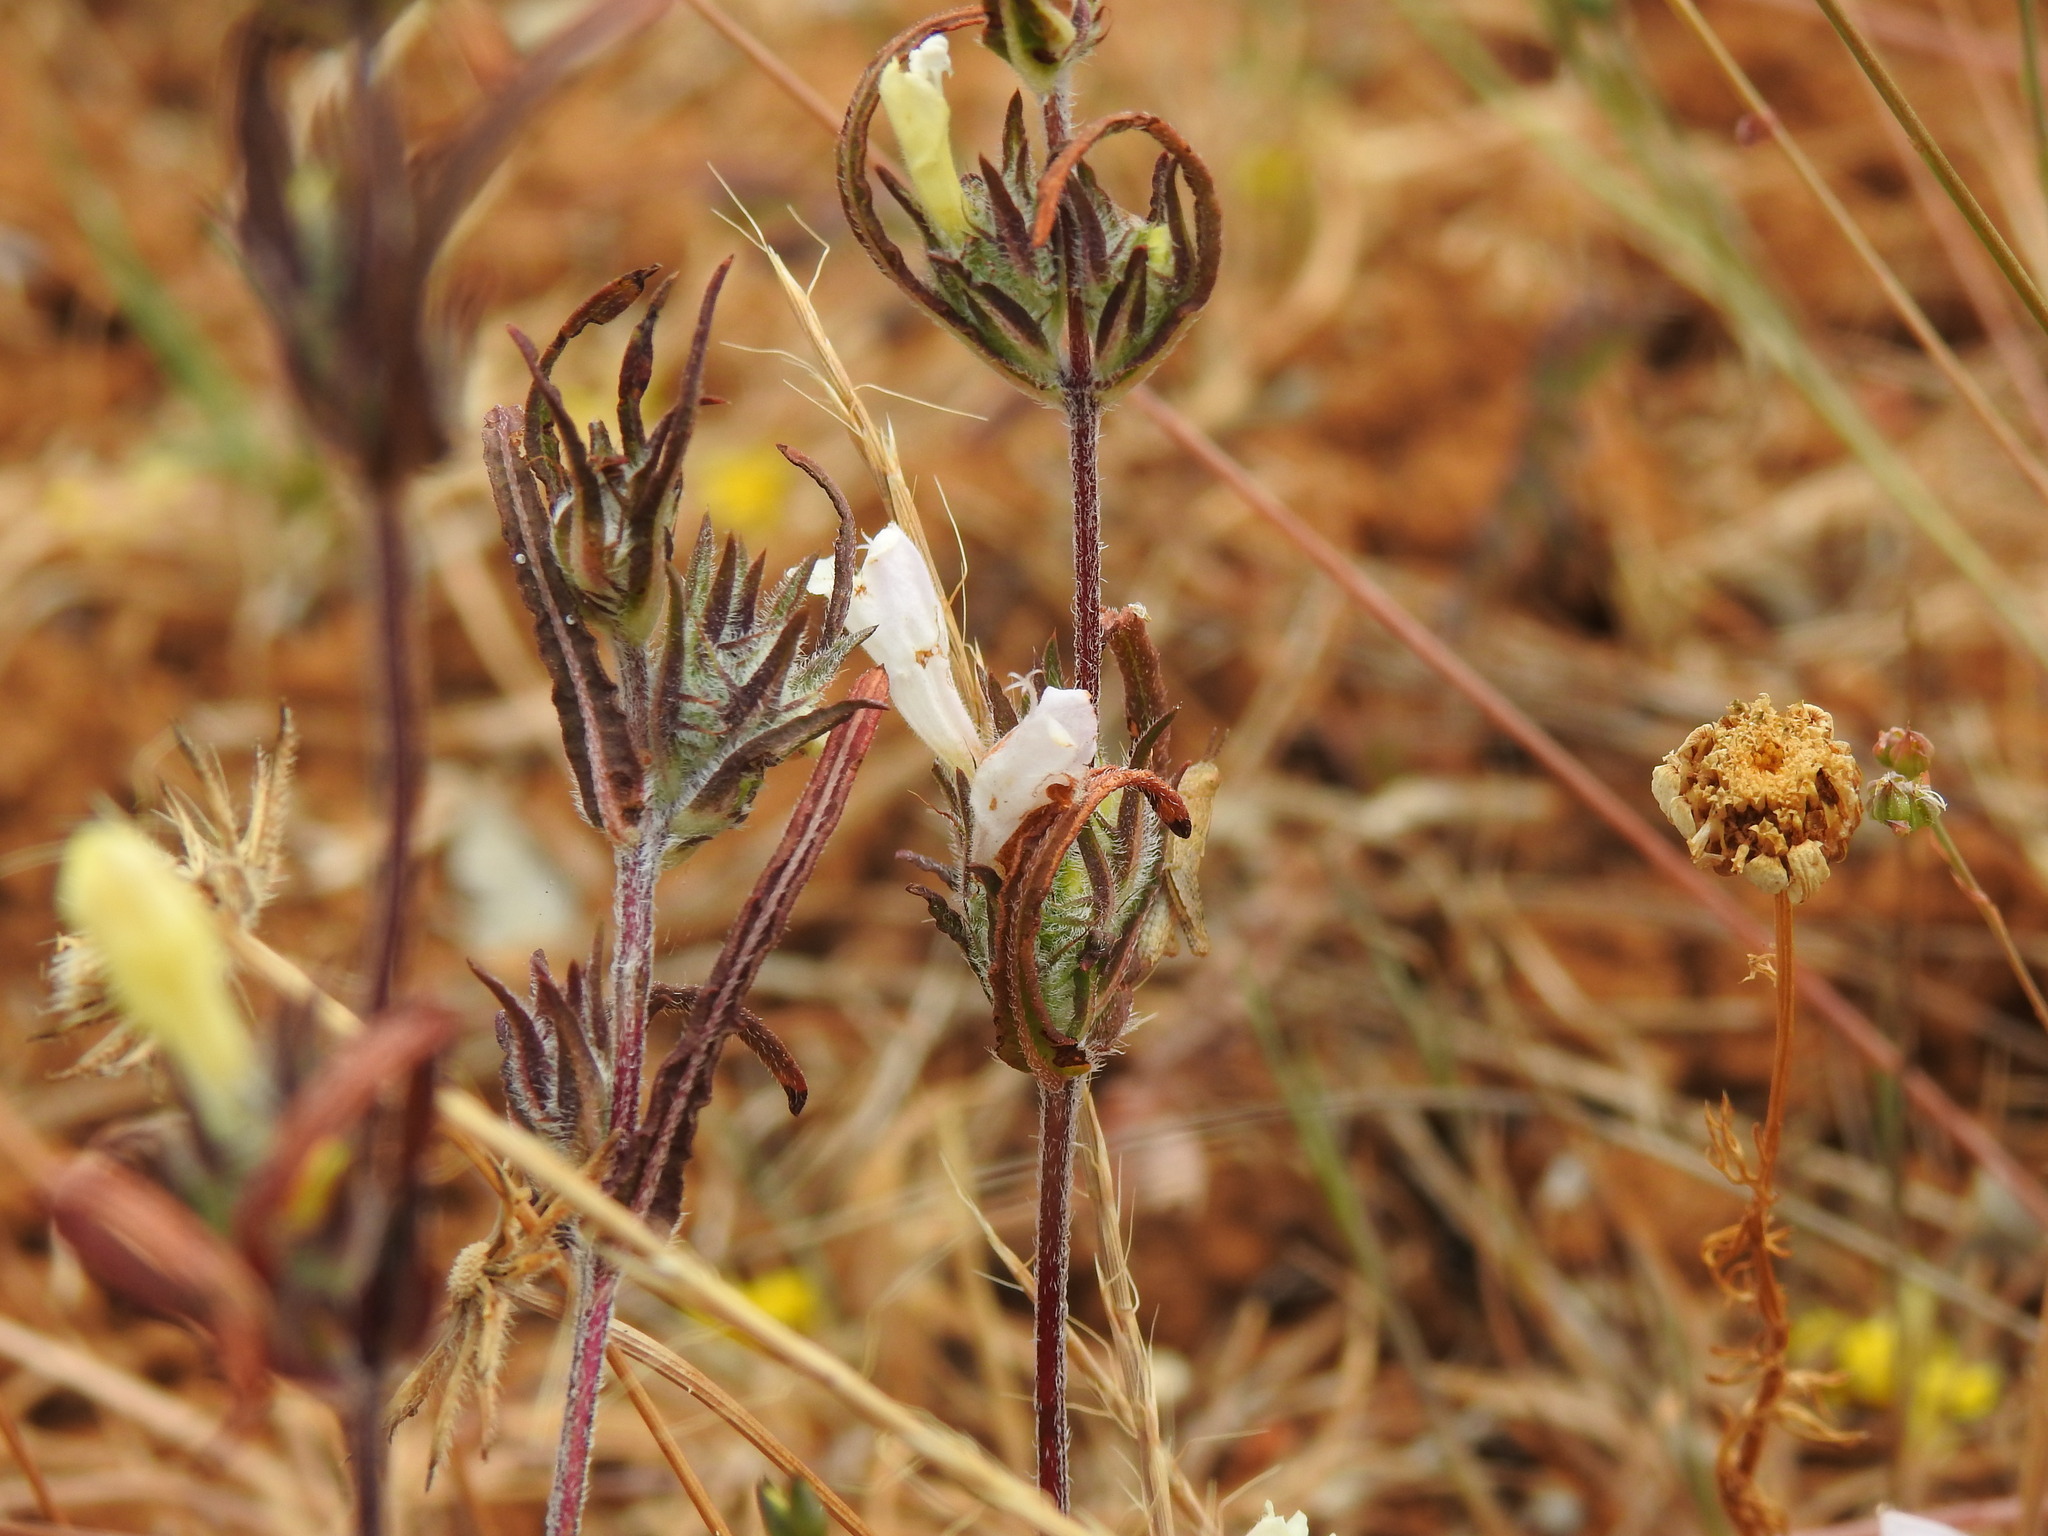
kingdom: Plantae
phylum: Tracheophyta
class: Magnoliopsida
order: Lamiales
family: Lamiaceae
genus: Cleonia
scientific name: Cleonia lusitanica
